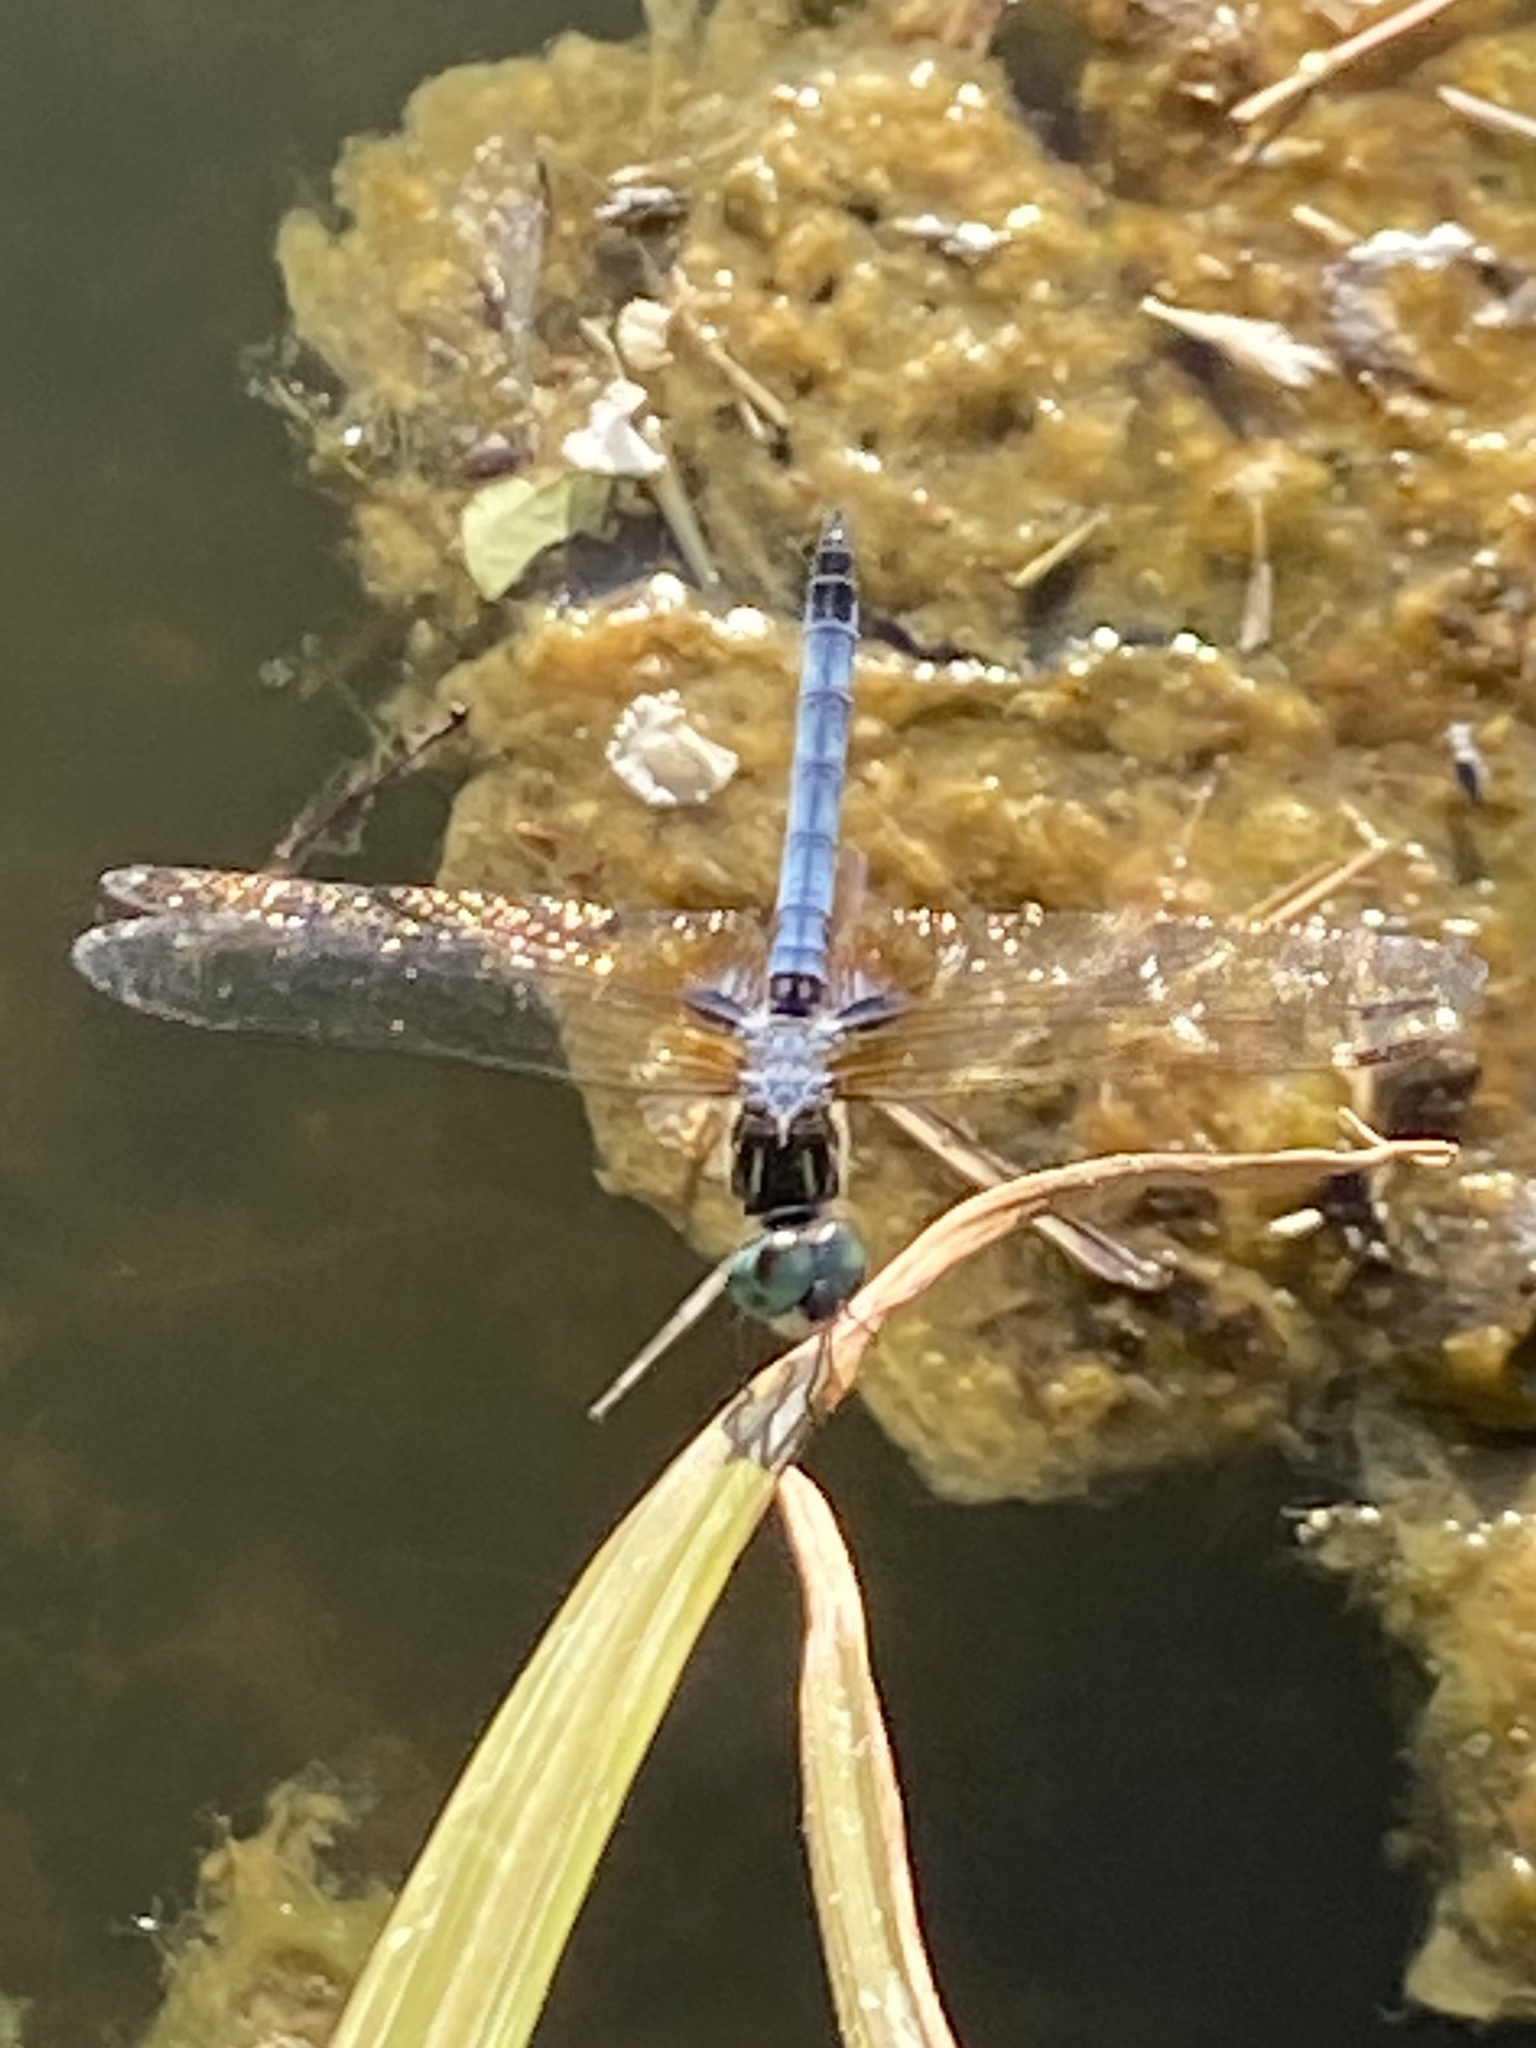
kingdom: Animalia
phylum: Arthropoda
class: Insecta
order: Odonata
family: Libellulidae
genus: Pachydiplax
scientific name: Pachydiplax longipennis
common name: Blue dasher
